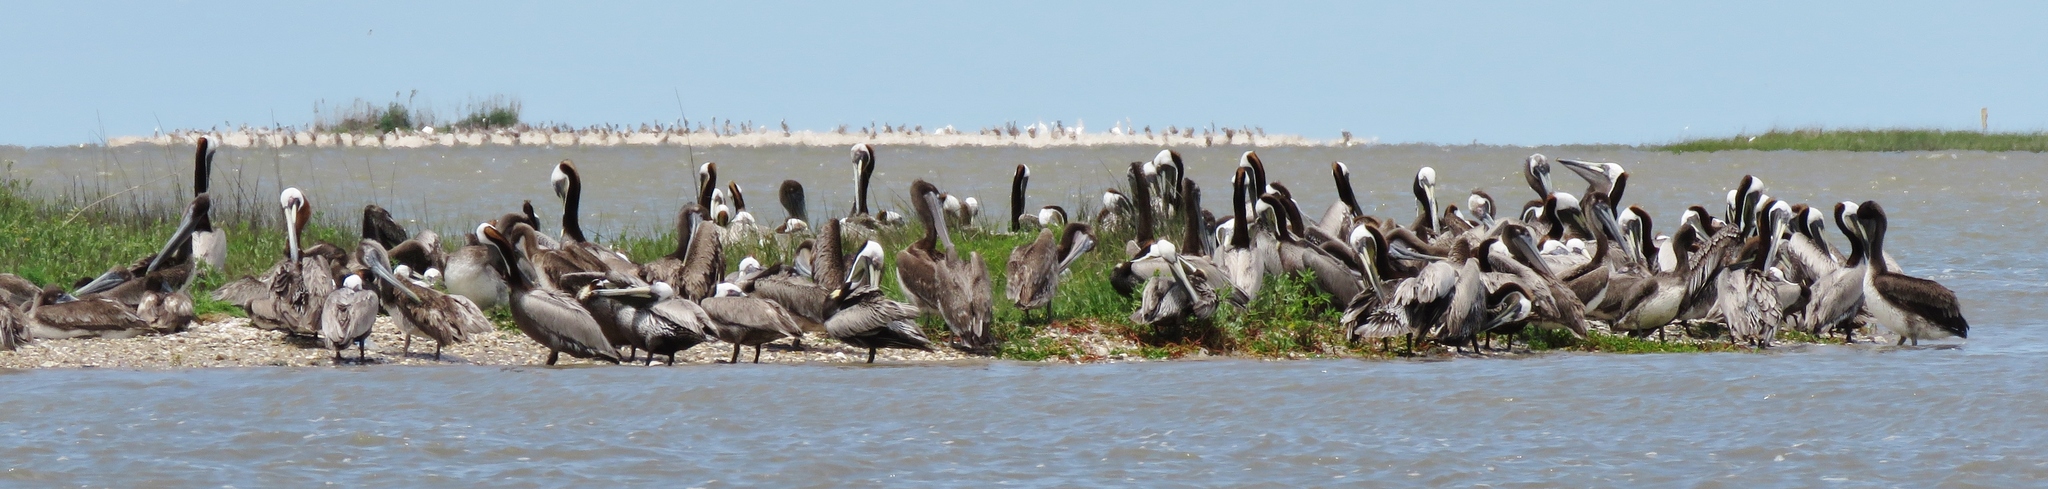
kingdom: Animalia
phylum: Chordata
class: Aves
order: Pelecaniformes
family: Pelecanidae
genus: Pelecanus
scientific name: Pelecanus occidentalis
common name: Brown pelican
